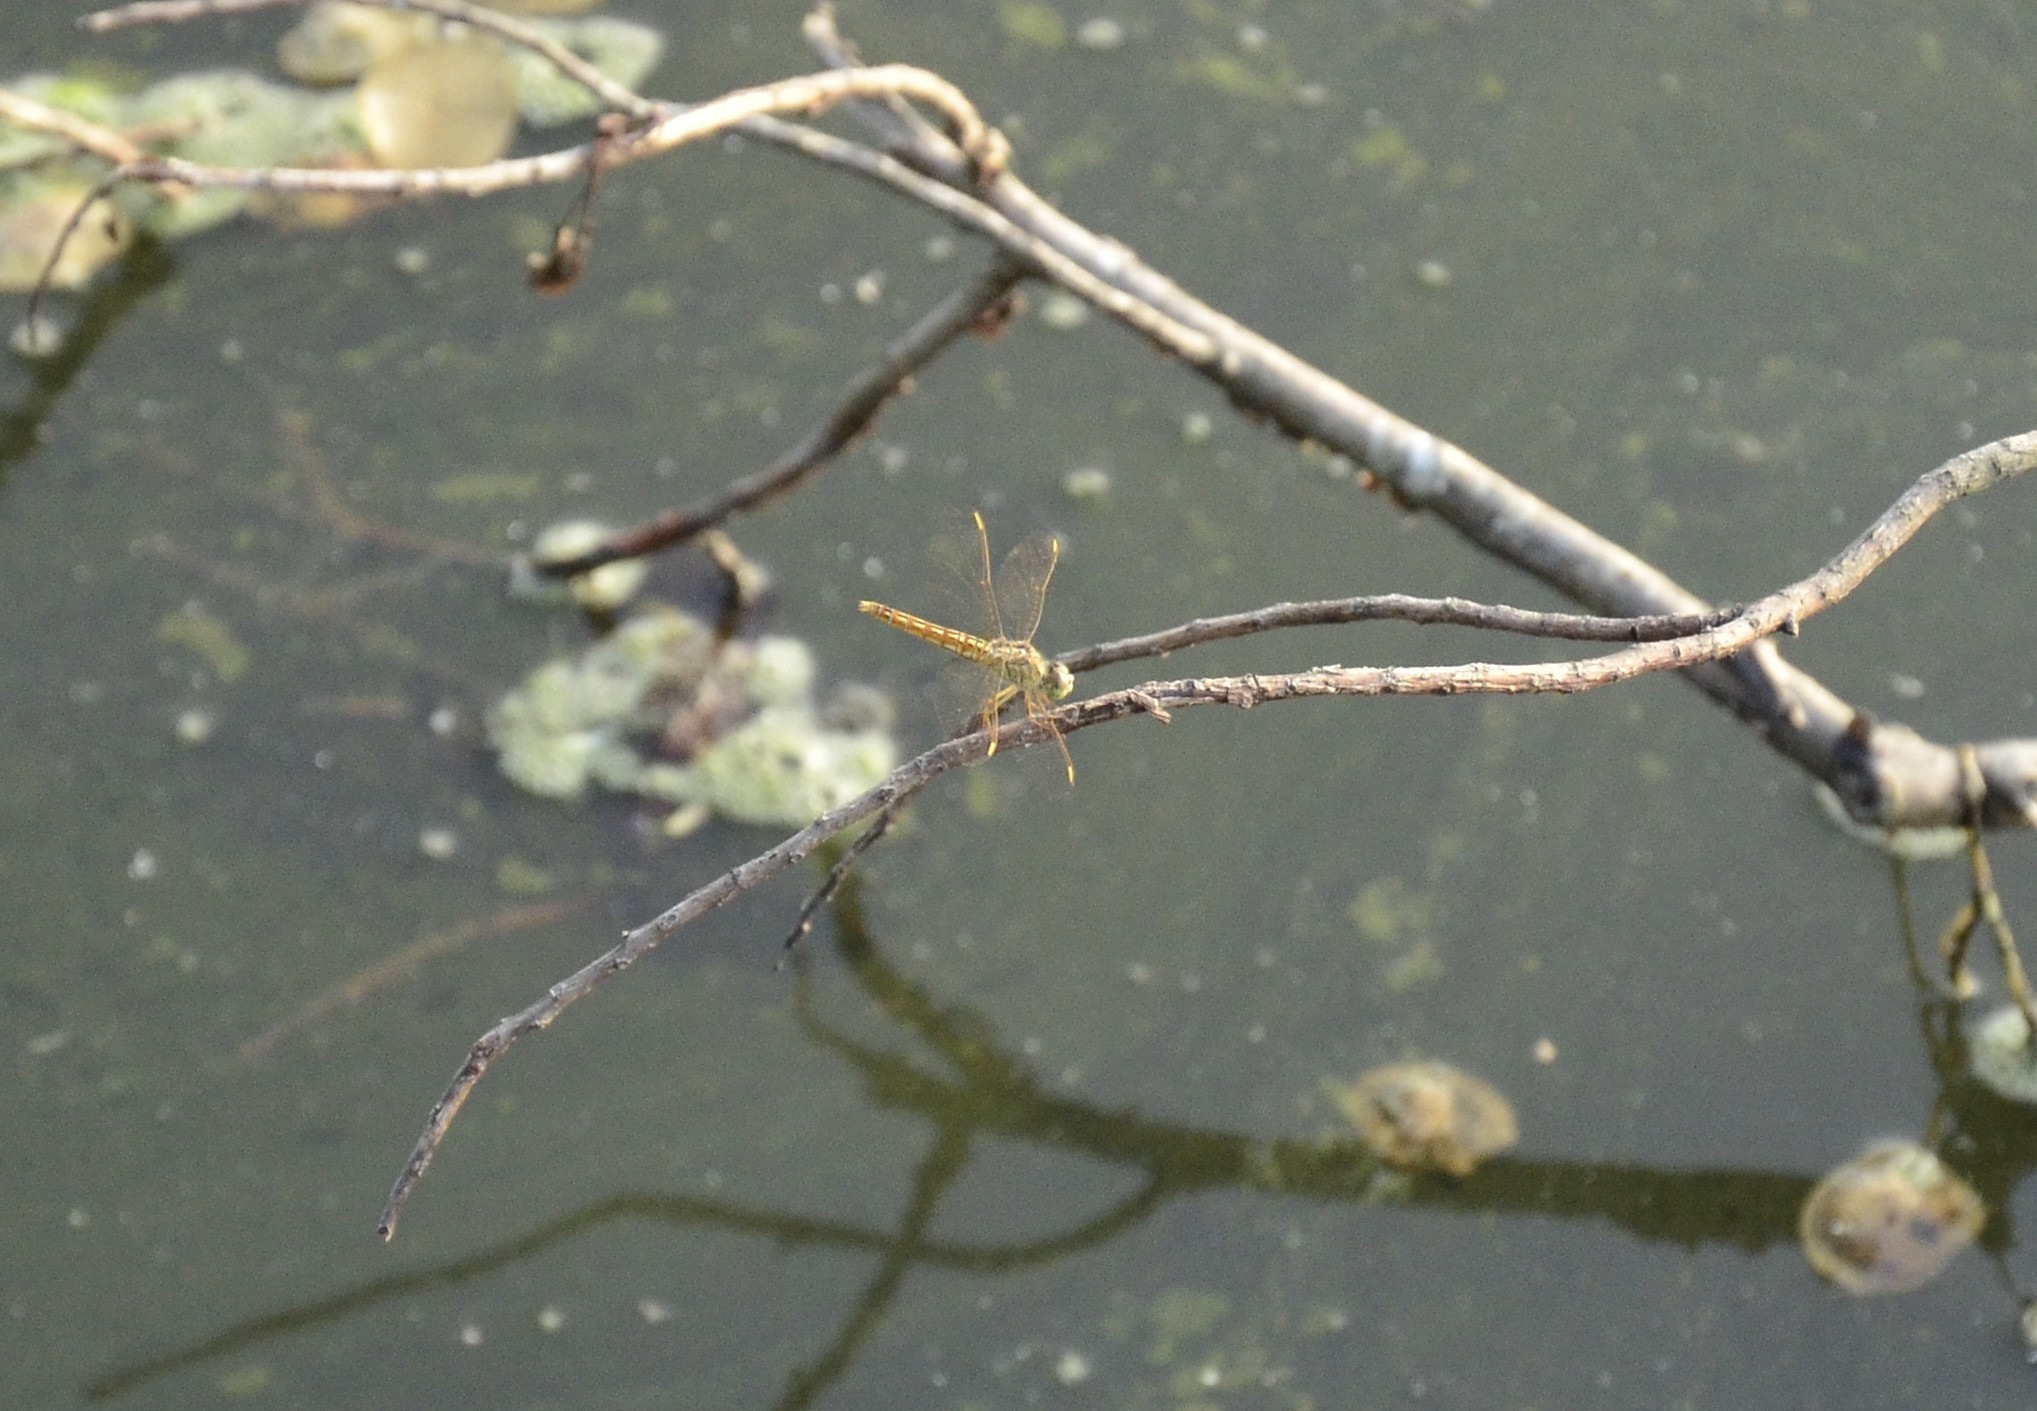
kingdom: Animalia
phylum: Arthropoda
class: Insecta
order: Odonata
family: Libellulidae
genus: Brachythemis
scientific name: Brachythemis contaminata
